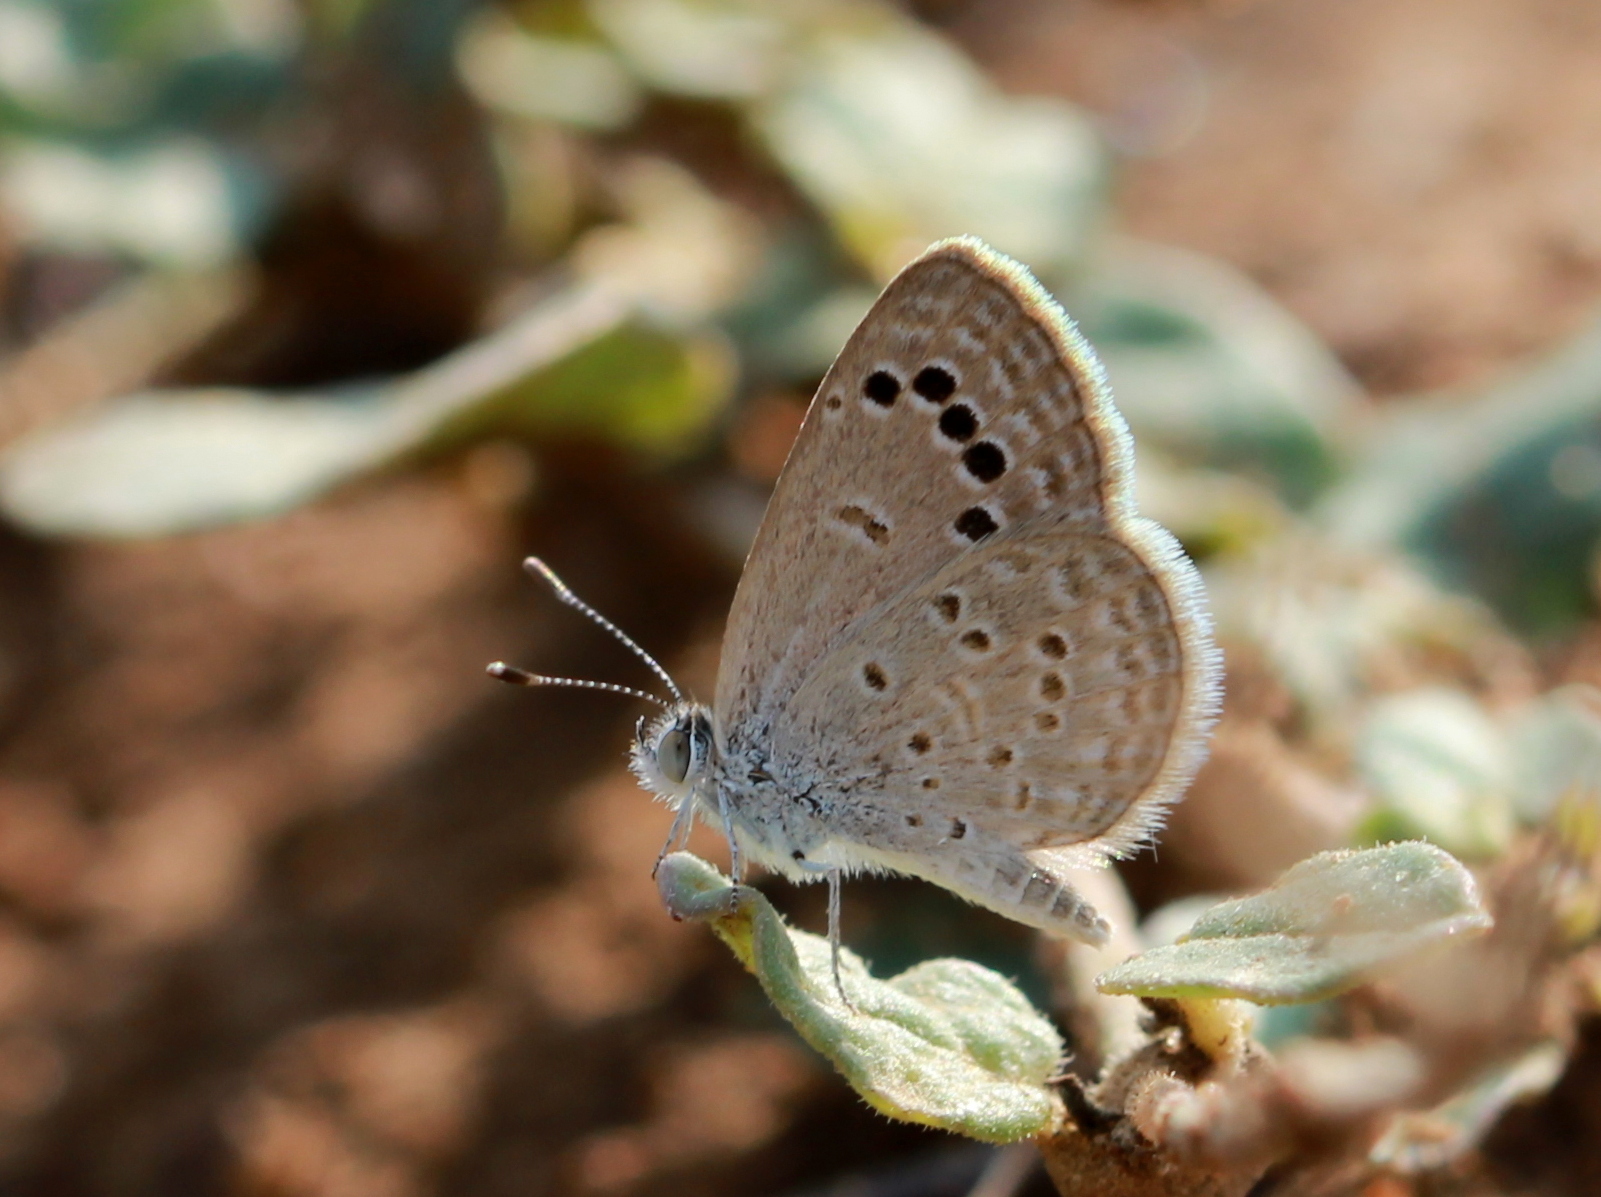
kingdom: Animalia
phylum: Arthropoda
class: Insecta
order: Lepidoptera
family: Lycaenidae
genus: Zizina
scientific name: Zizina otis
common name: Lesser grass blue
